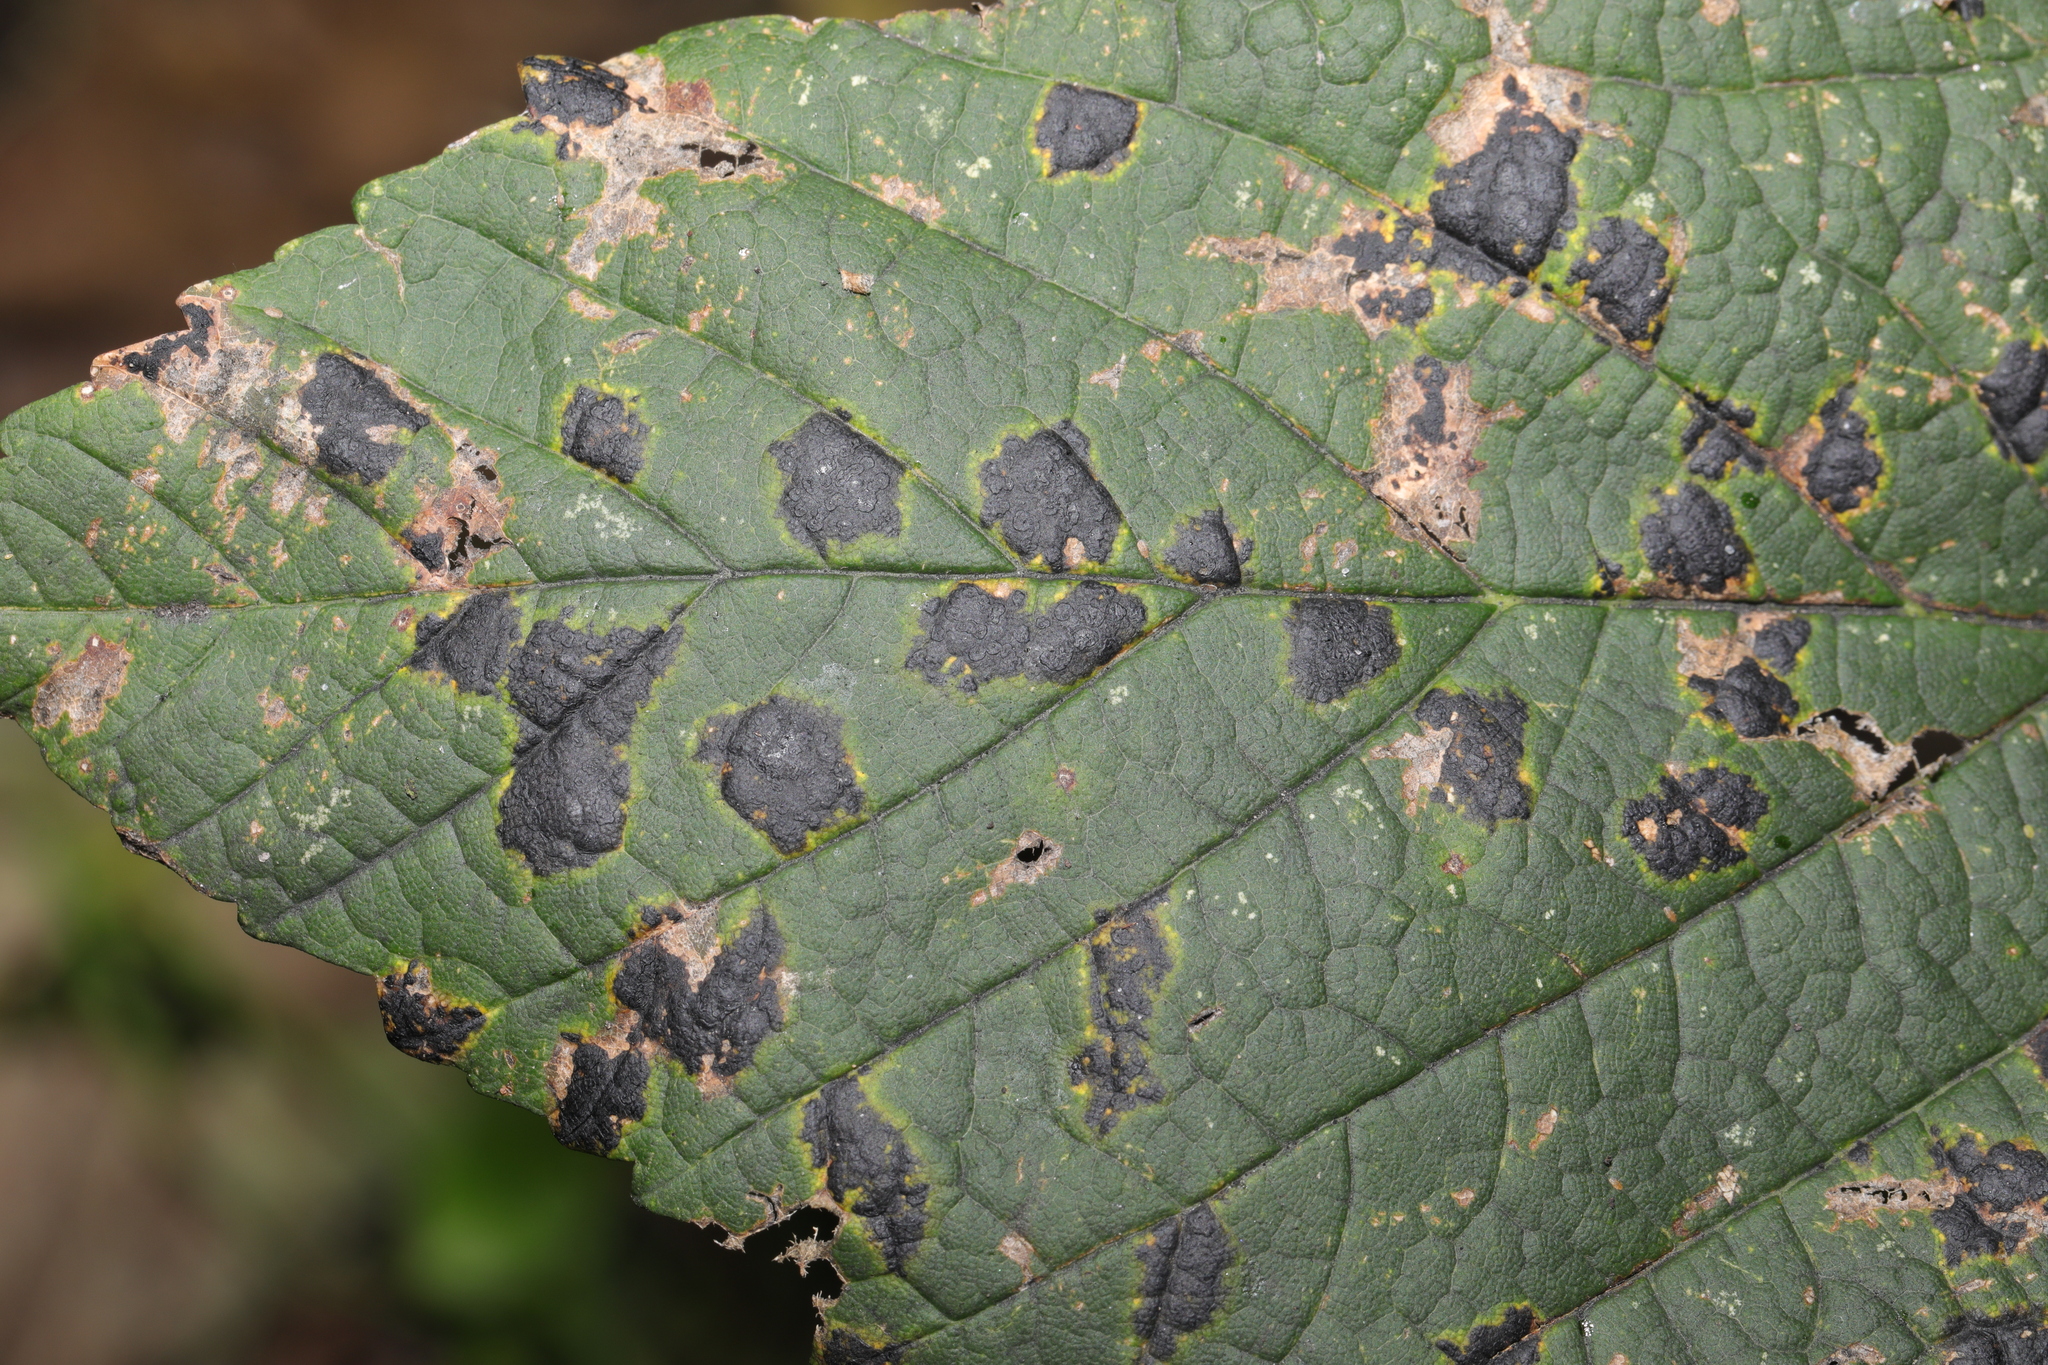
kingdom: Fungi
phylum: Ascomycota
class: Leotiomycetes
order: Rhytismatales
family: Rhytismataceae
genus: Rhytisma
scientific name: Rhytisma acerinum
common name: European tar spot
